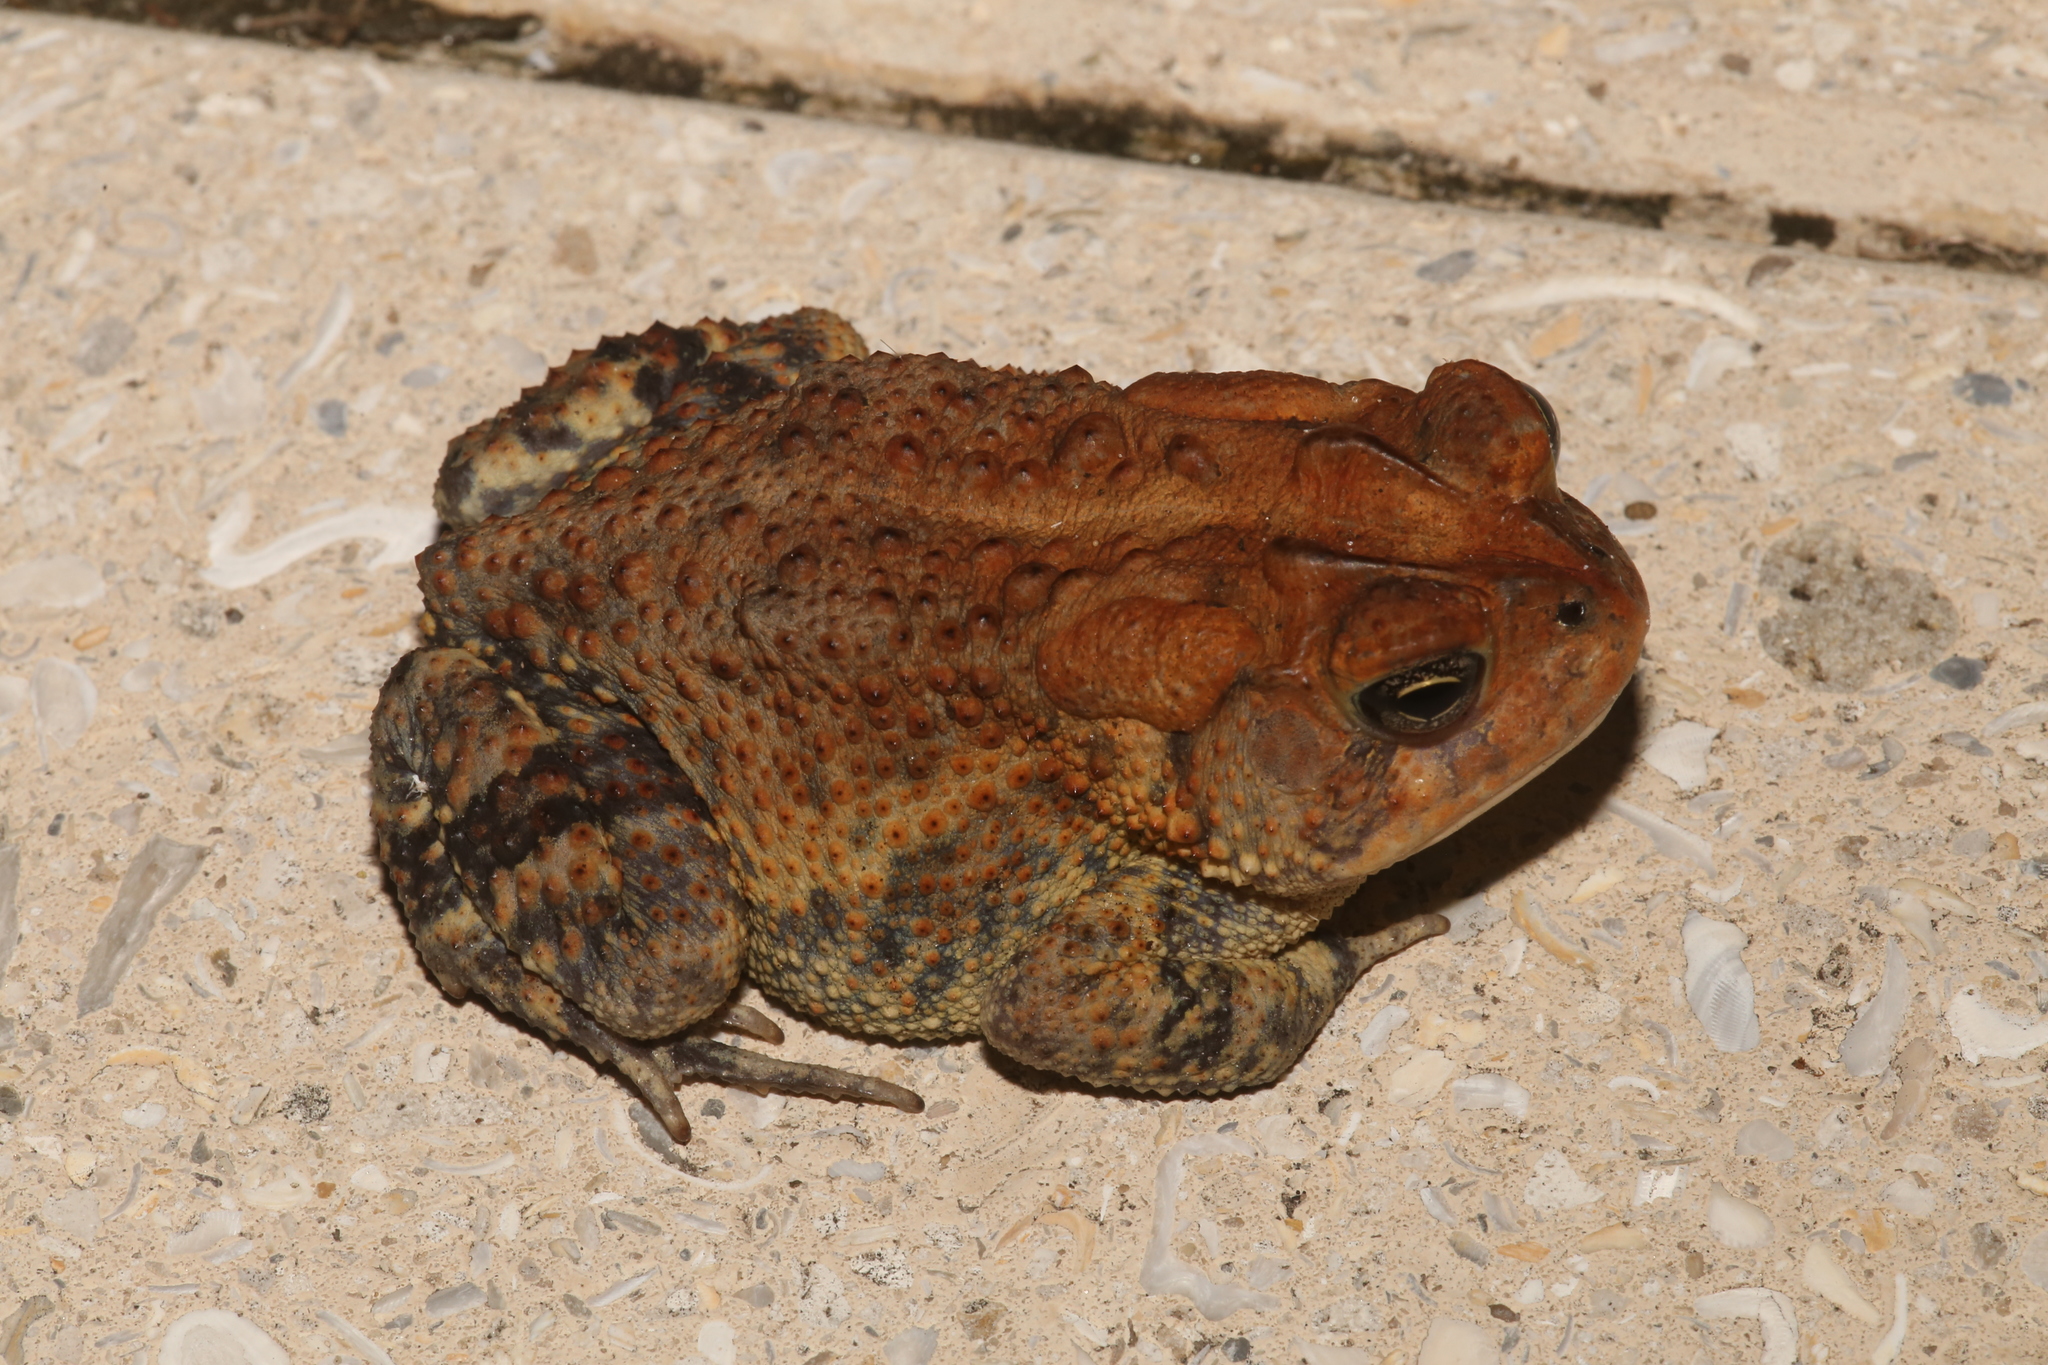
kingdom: Animalia
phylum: Chordata
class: Amphibia
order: Anura
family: Bufonidae
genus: Anaxyrus
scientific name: Anaxyrus terrestris
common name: Southern toad
